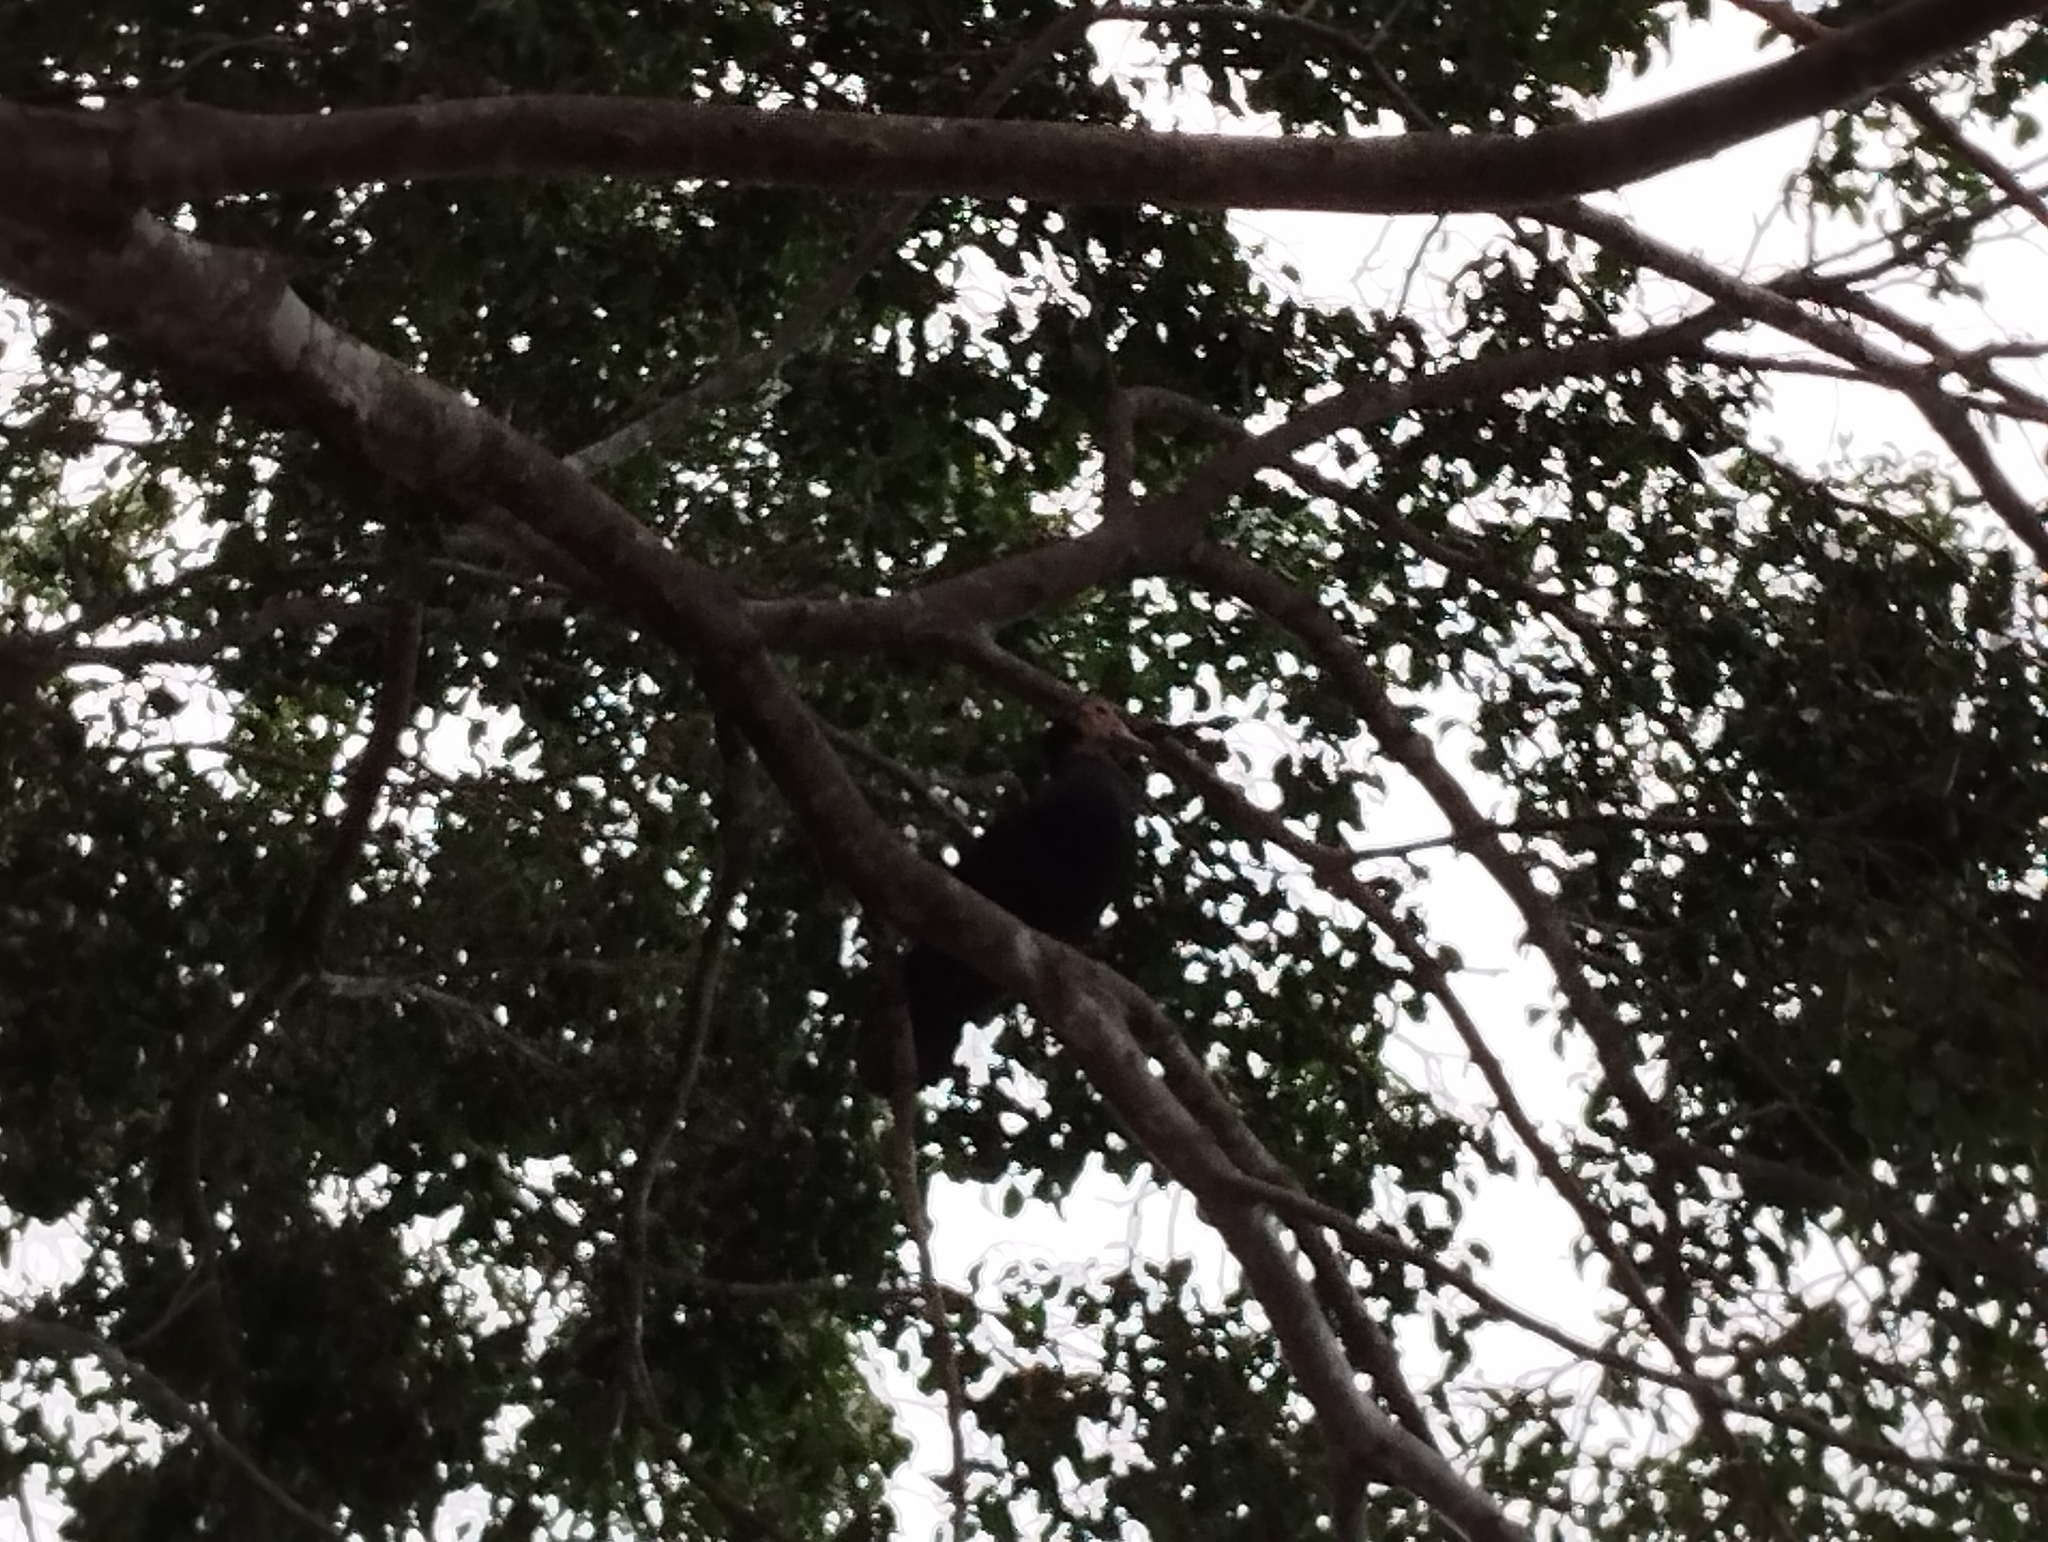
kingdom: Animalia
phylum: Chordata
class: Aves
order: Anseriformes
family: Anatidae
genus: Cairina
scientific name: Cairina moschata
